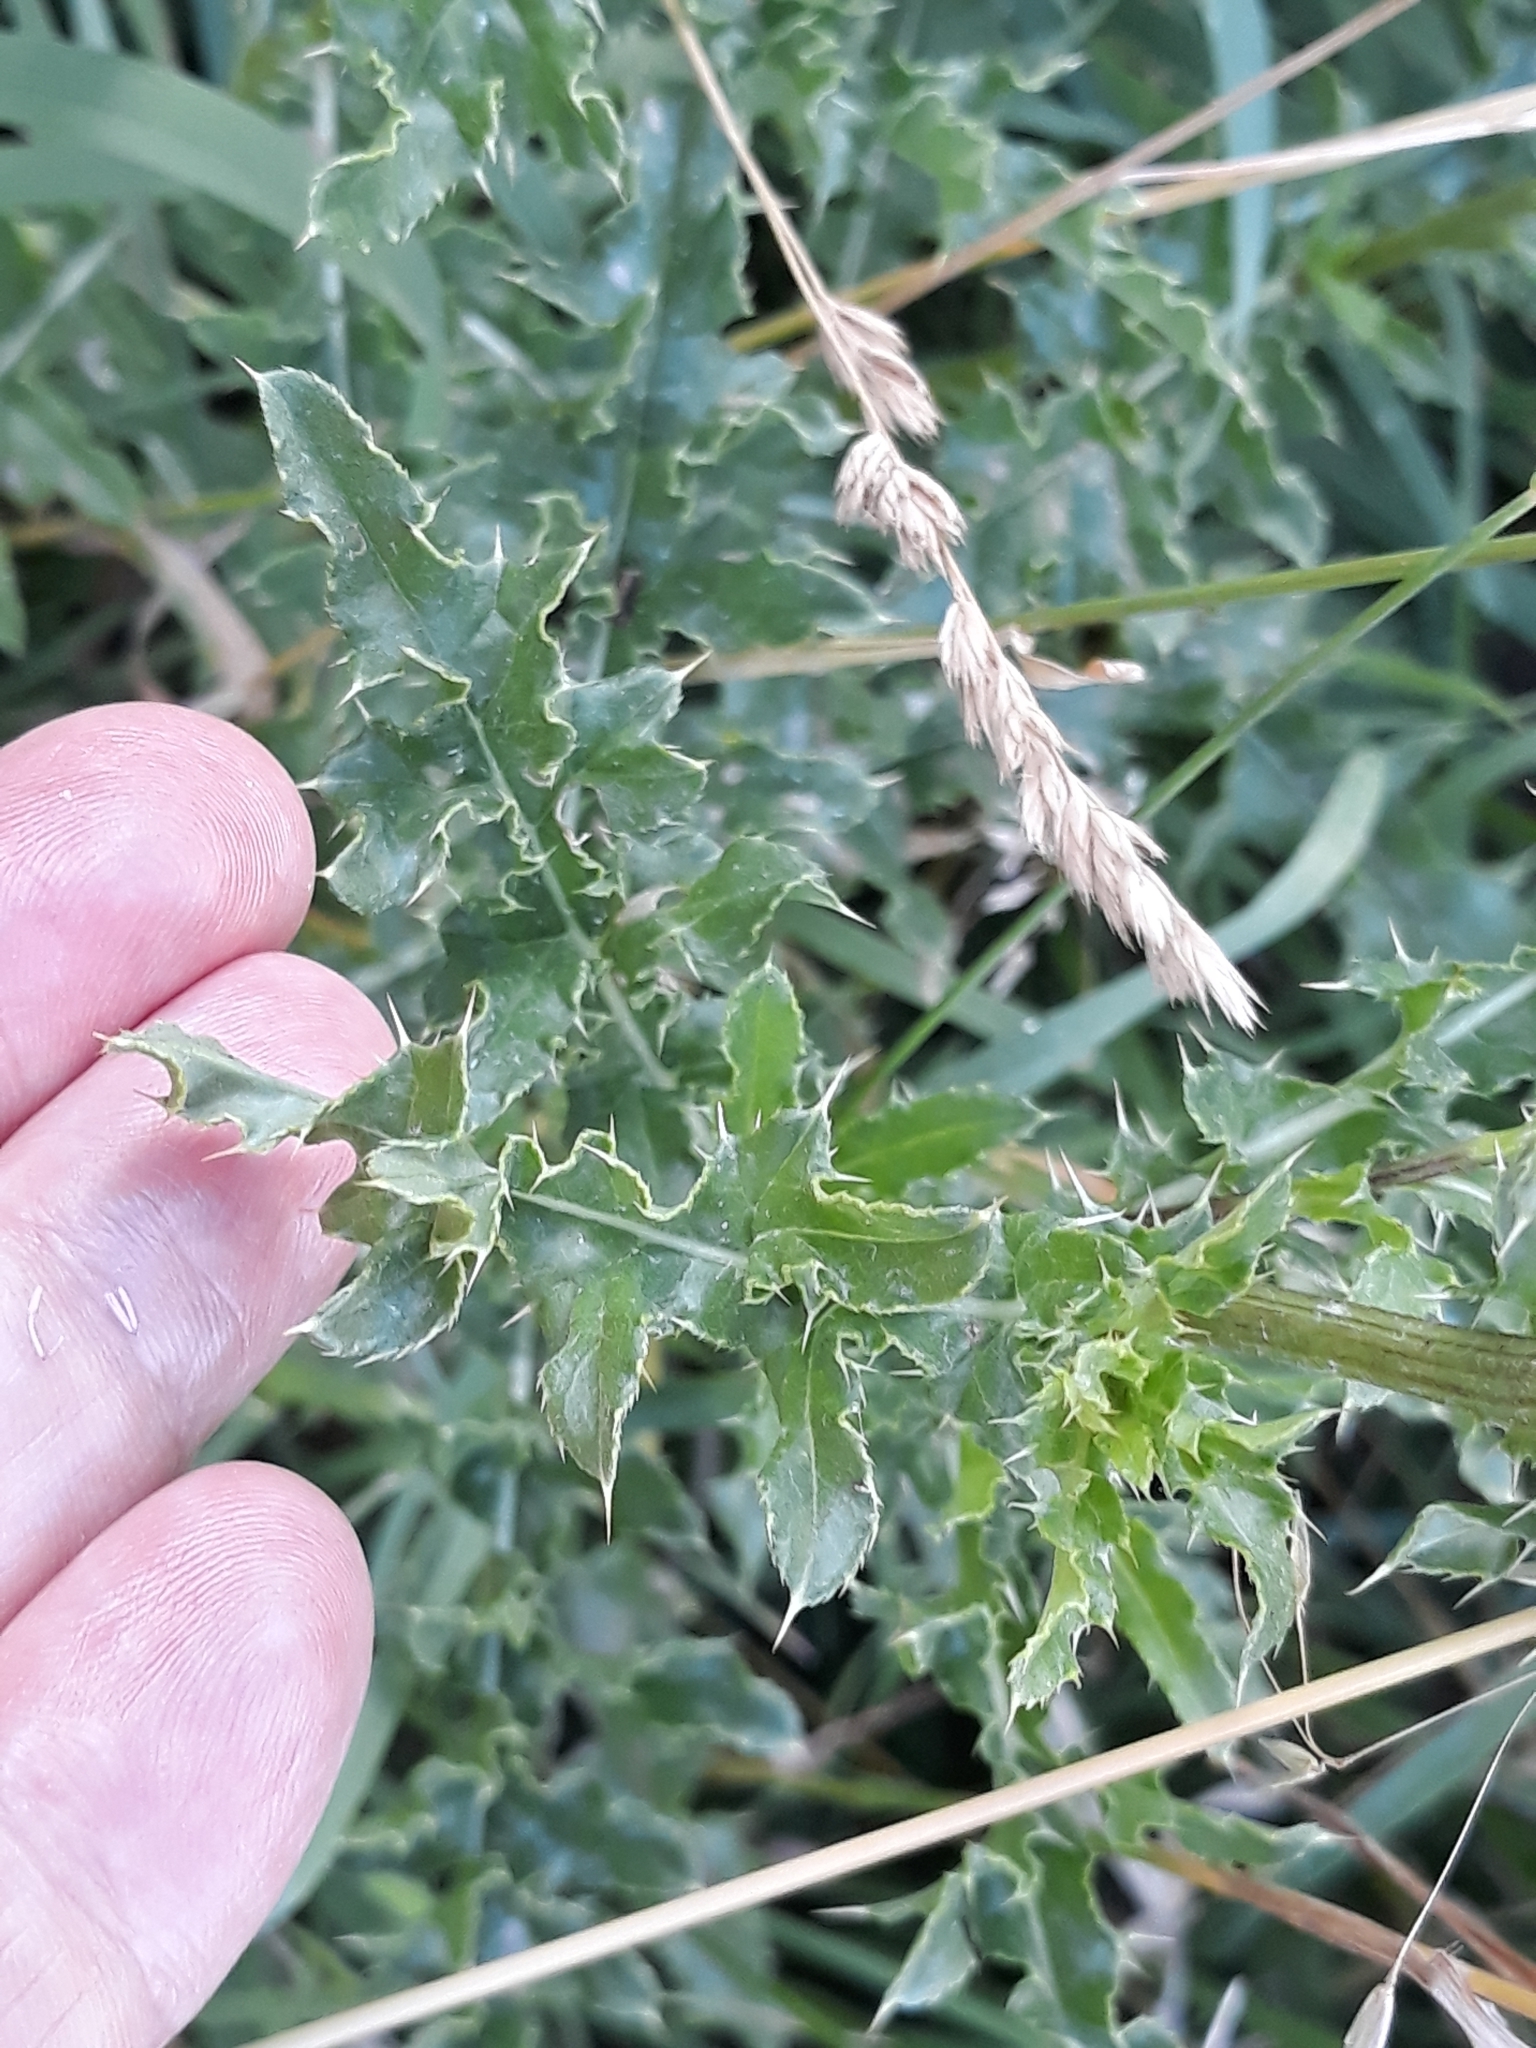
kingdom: Plantae
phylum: Tracheophyta
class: Magnoliopsida
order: Asterales
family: Asteraceae
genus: Cirsium
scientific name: Cirsium arvense
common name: Creeping thistle
